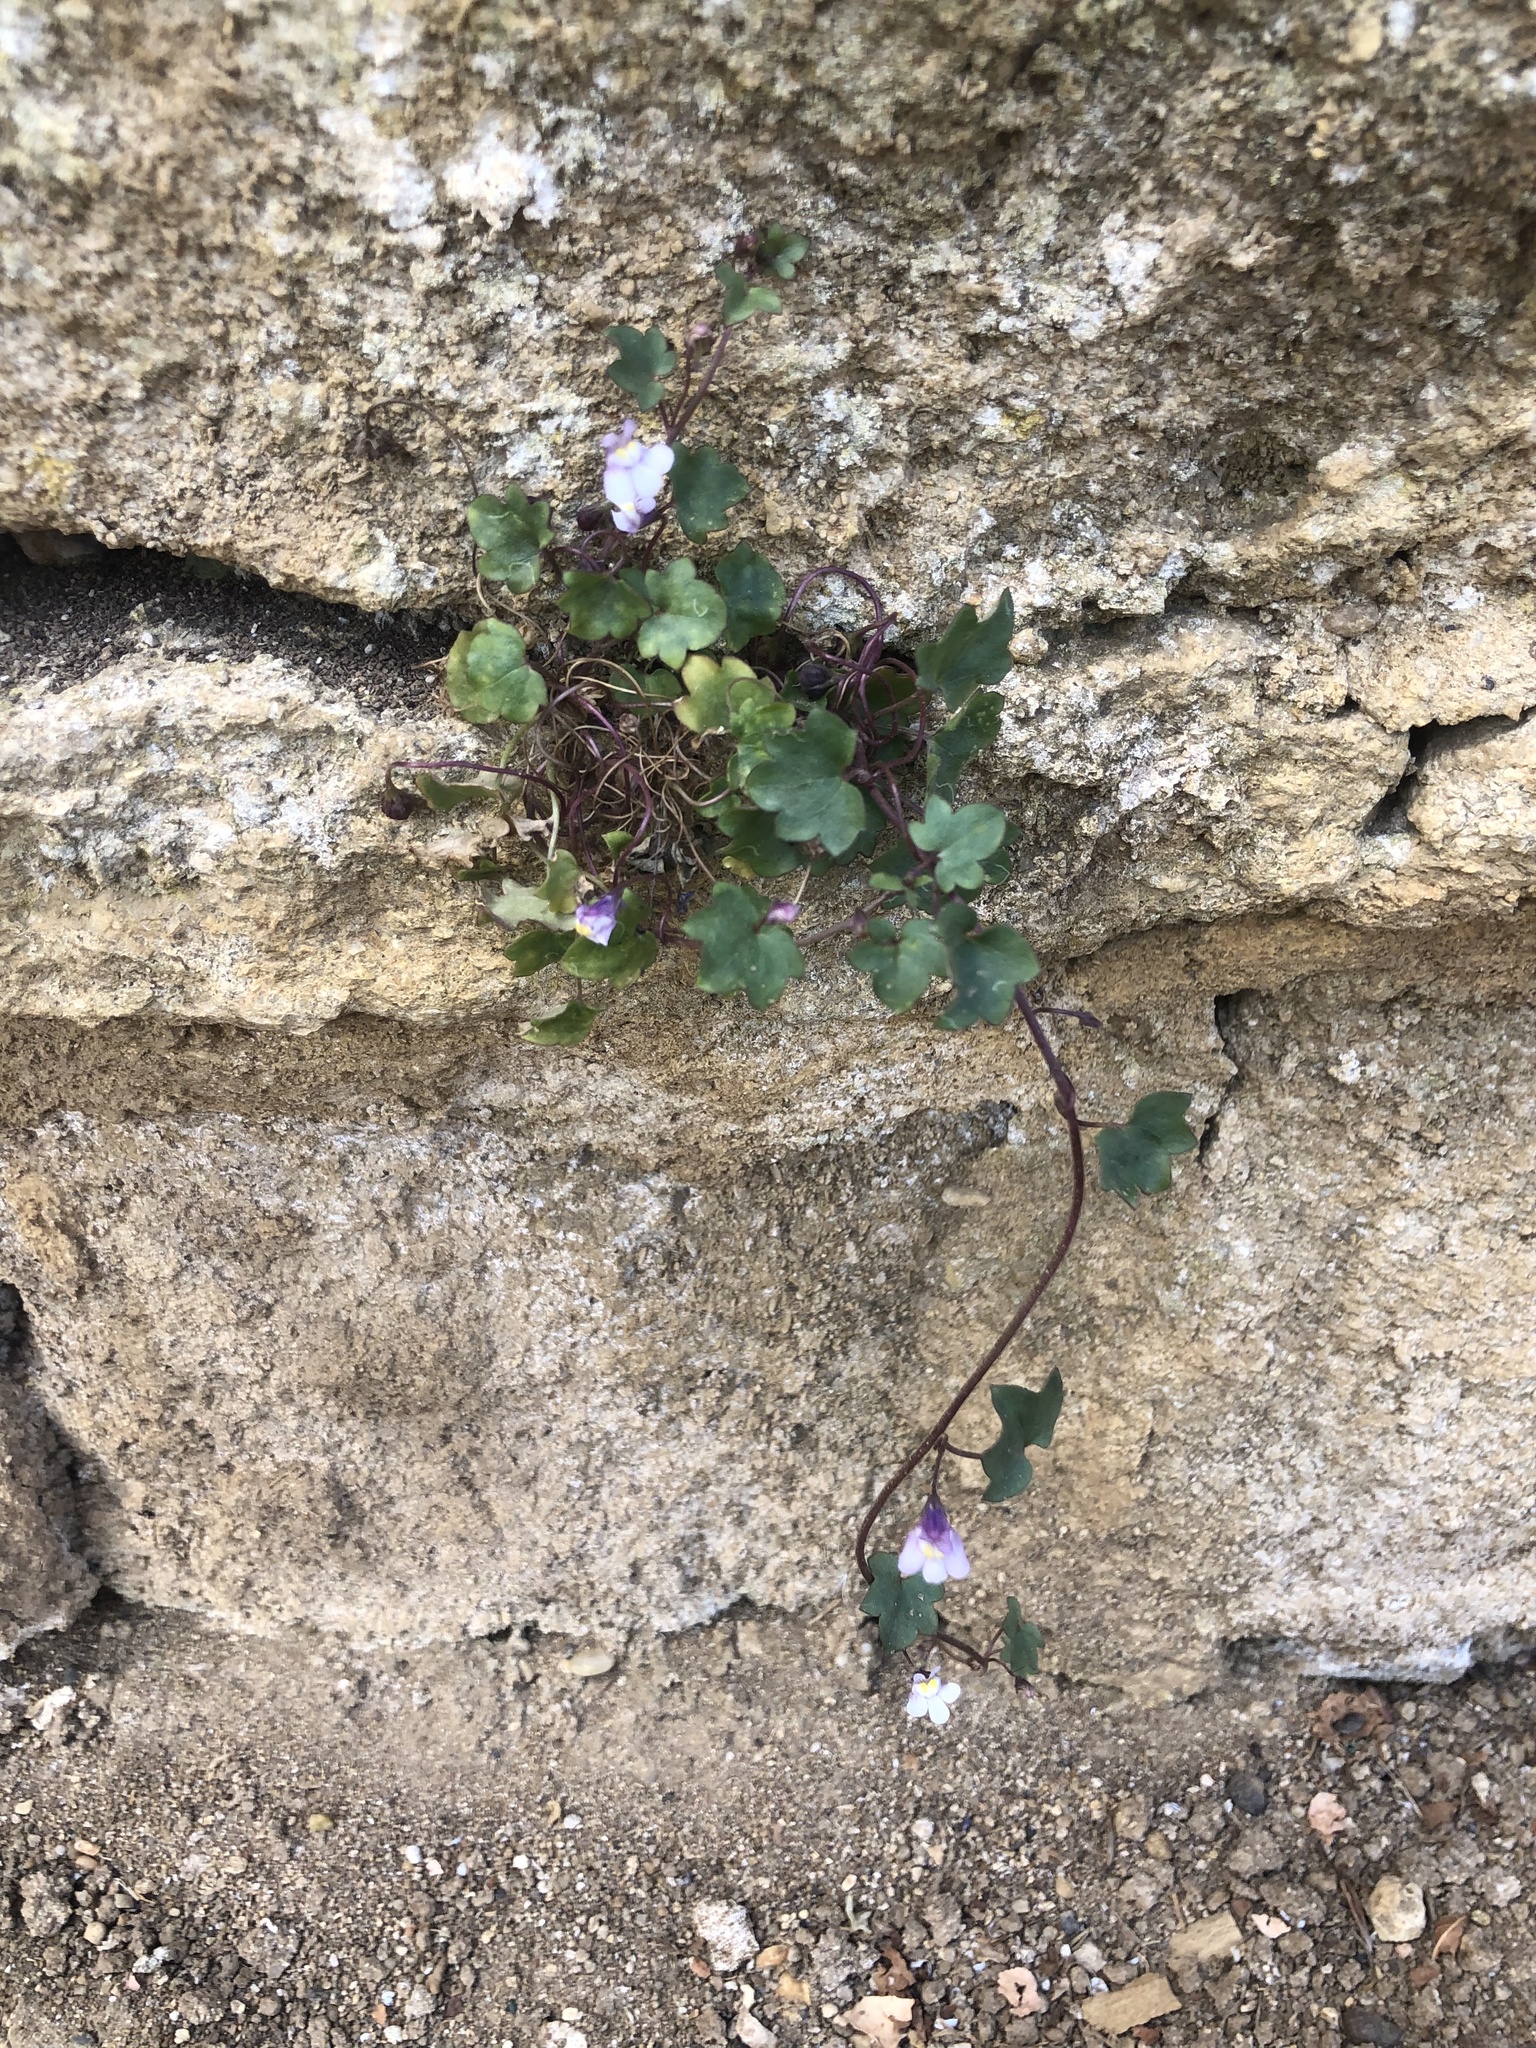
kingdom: Plantae
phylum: Tracheophyta
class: Magnoliopsida
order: Lamiales
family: Plantaginaceae
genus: Cymbalaria
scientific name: Cymbalaria muralis
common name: Ivy-leaved toadflax
